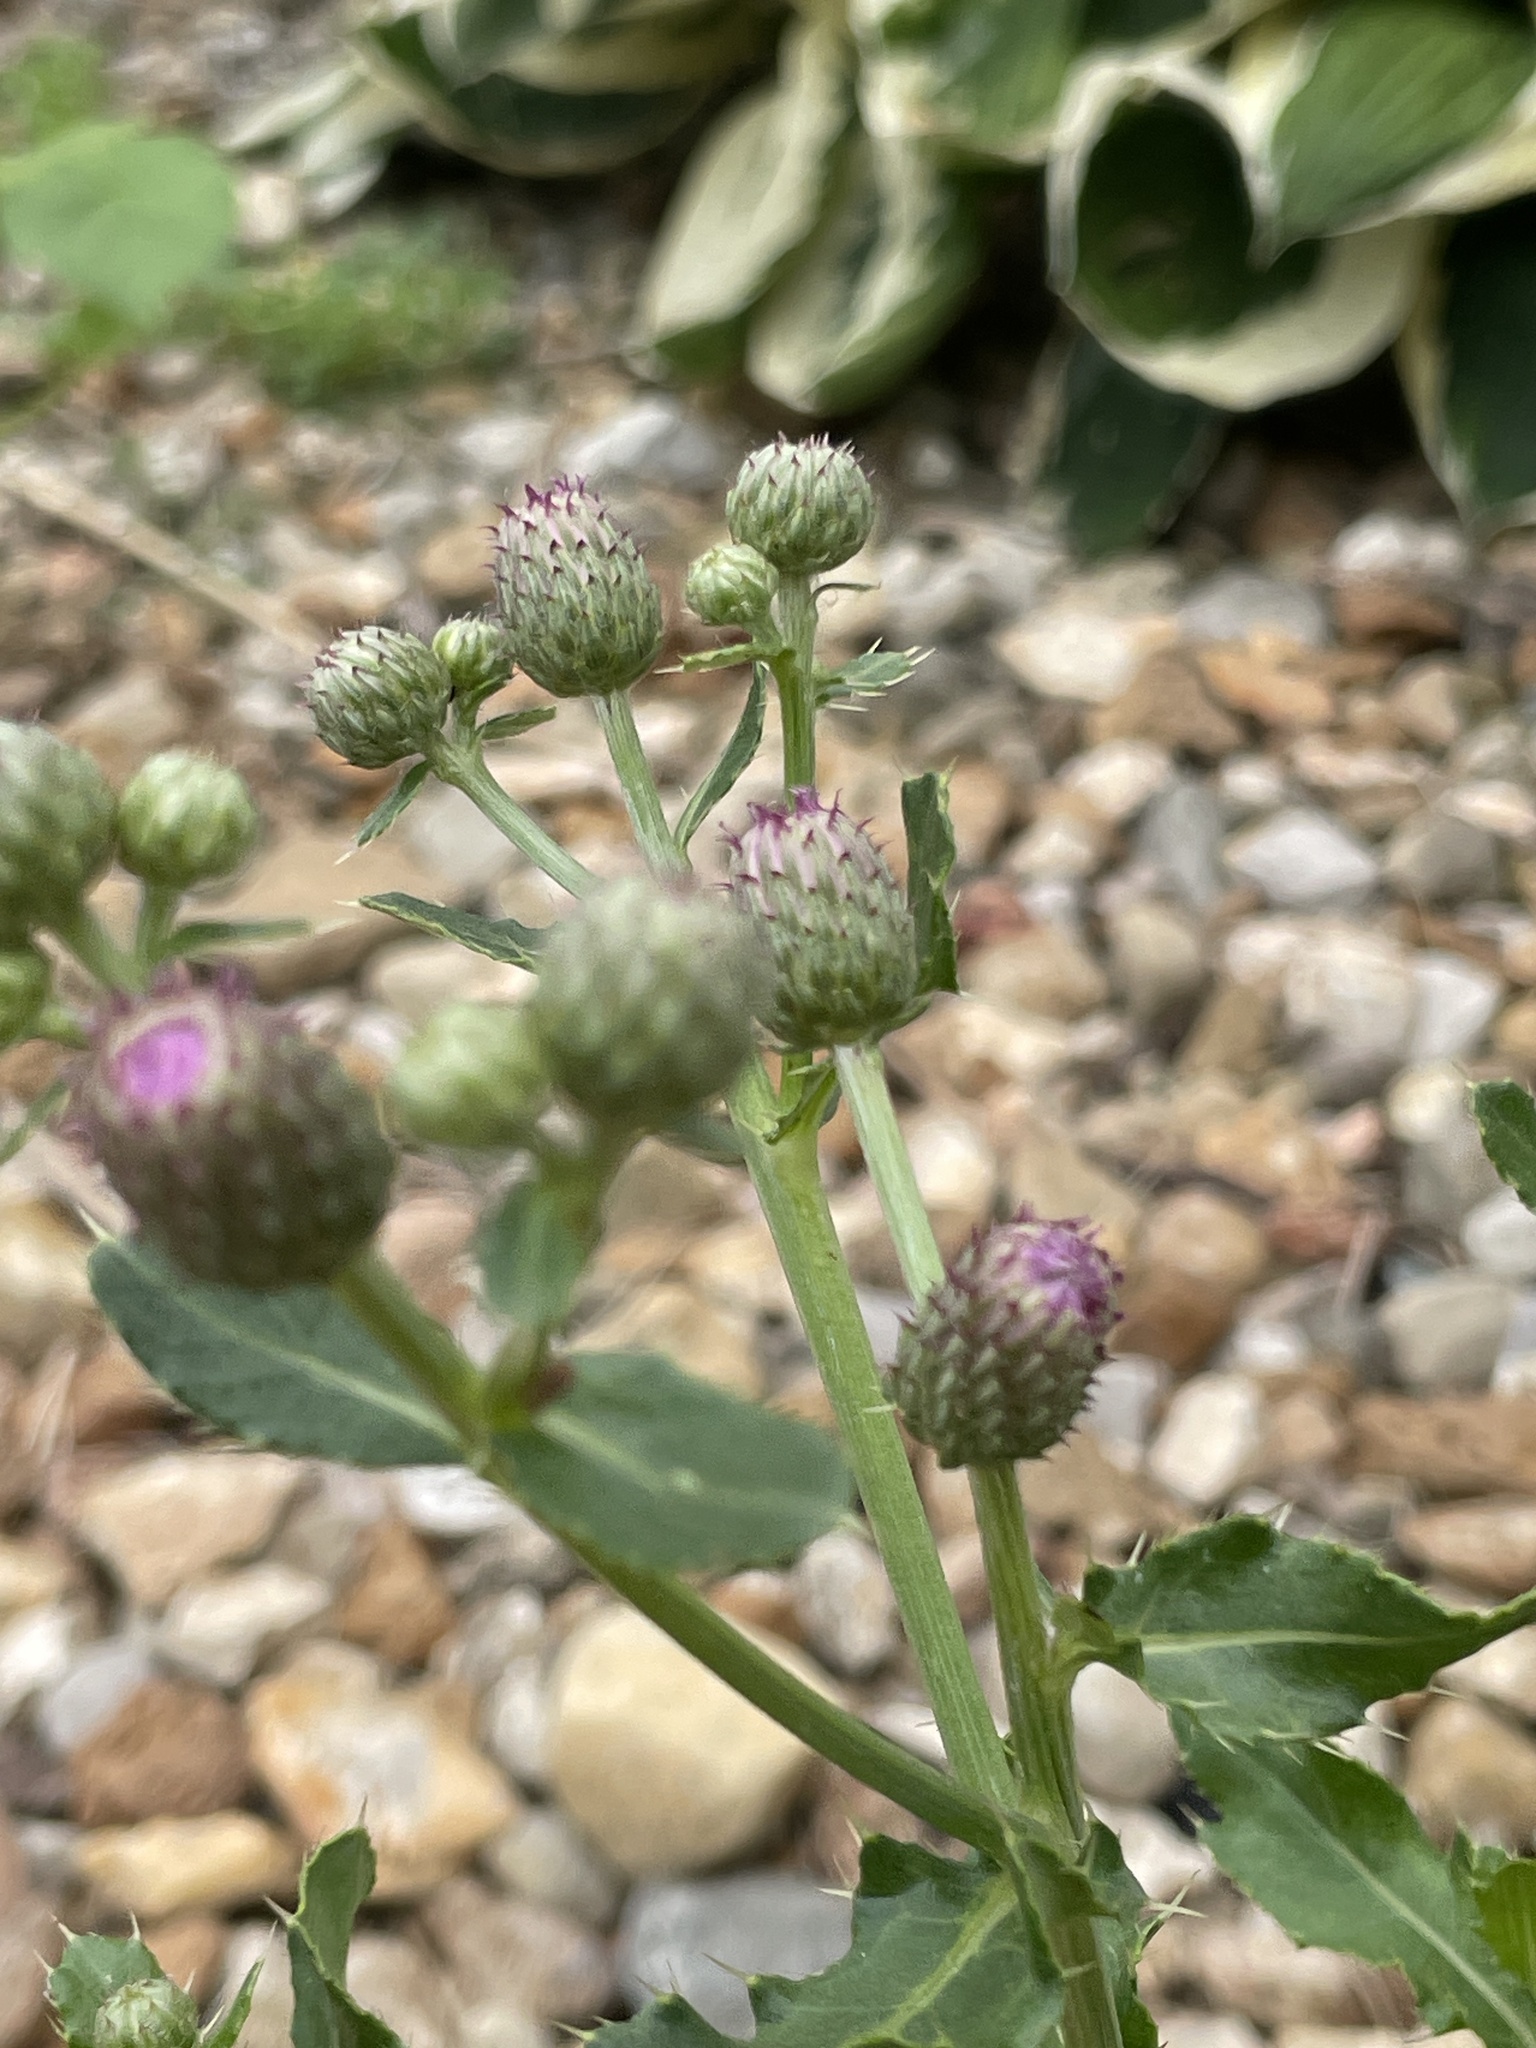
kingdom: Plantae
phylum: Tracheophyta
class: Magnoliopsida
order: Asterales
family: Asteraceae
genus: Cirsium
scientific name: Cirsium arvense
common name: Creeping thistle
